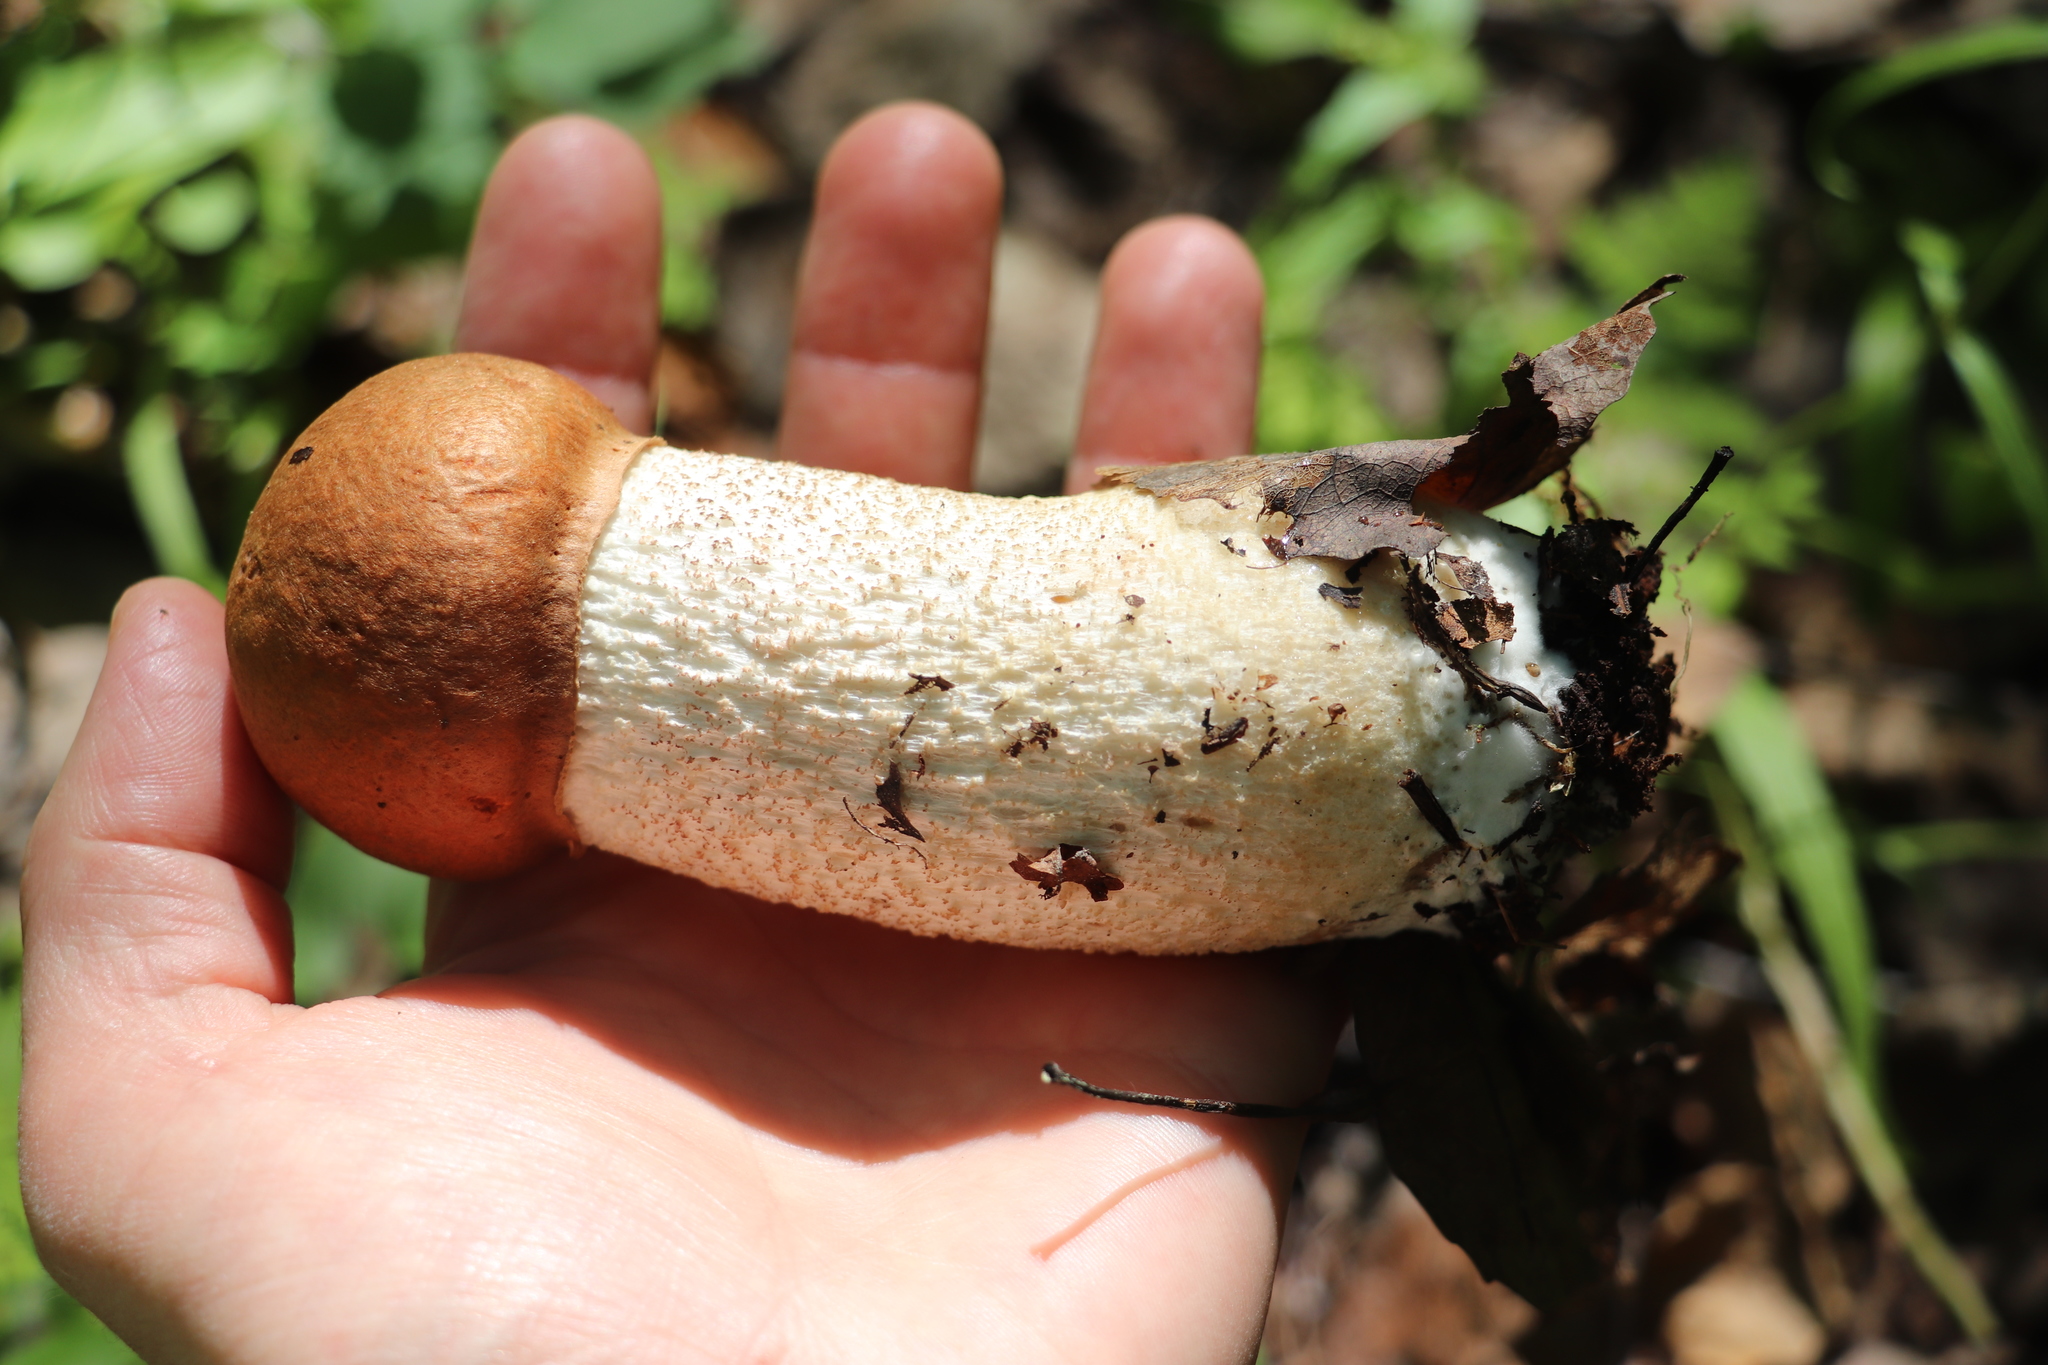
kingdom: Fungi
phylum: Basidiomycota
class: Agaricomycetes
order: Boletales
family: Boletaceae
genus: Leccinum
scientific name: Leccinum versipelle
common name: Orange birch bolete
